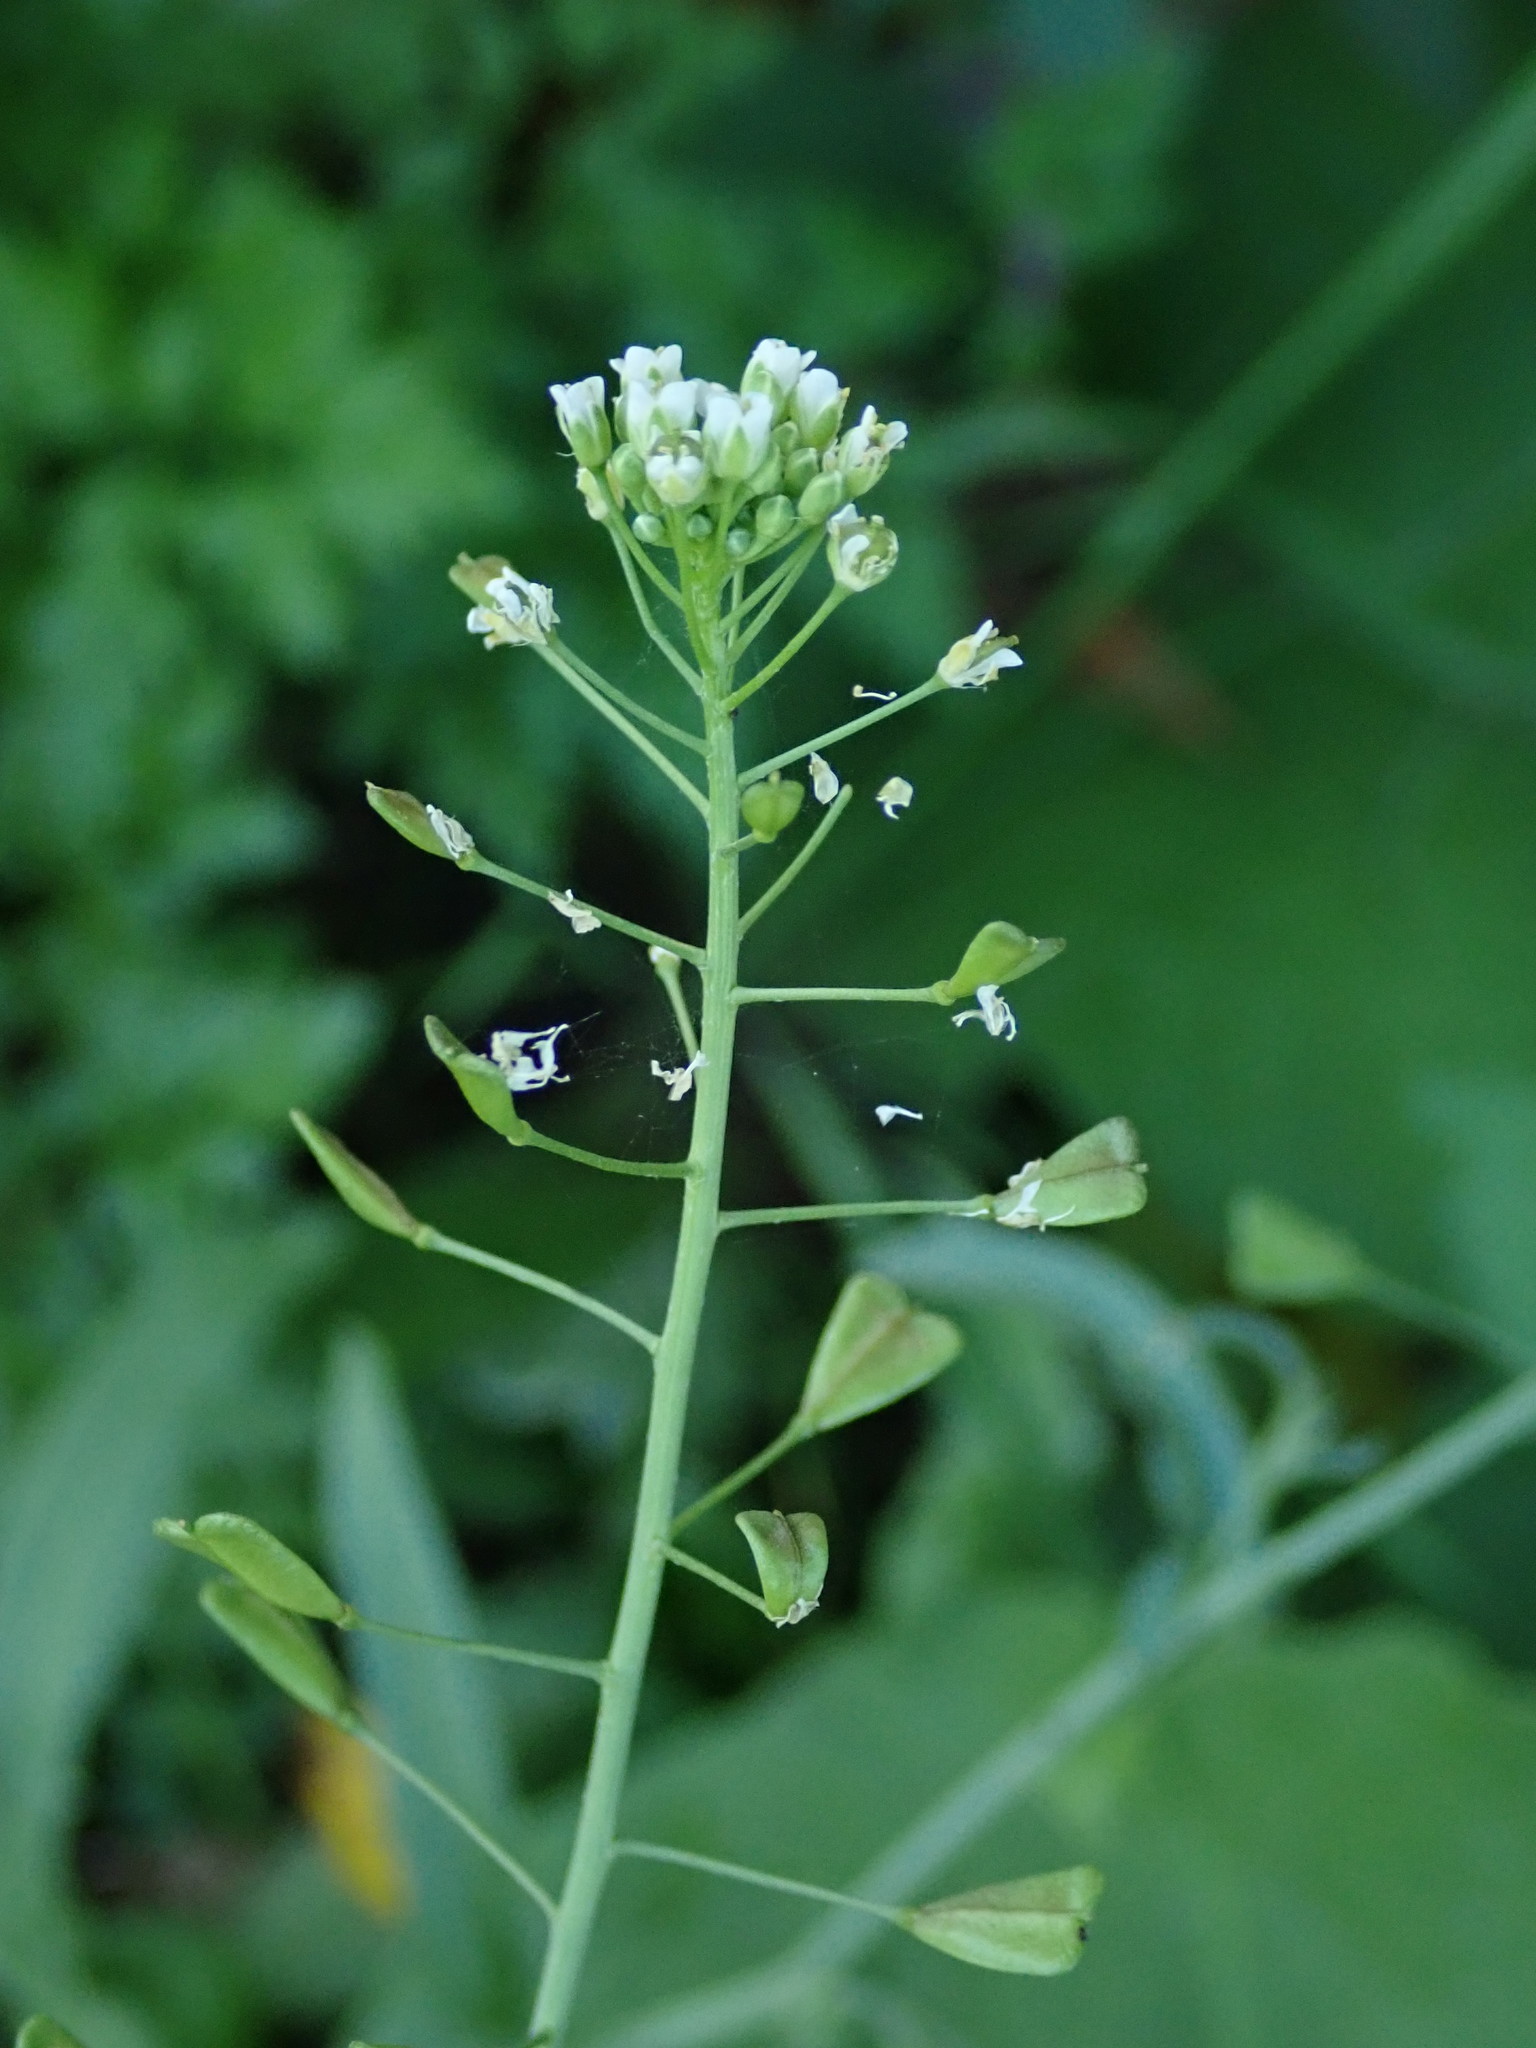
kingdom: Plantae
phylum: Tracheophyta
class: Magnoliopsida
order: Brassicales
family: Brassicaceae
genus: Capsella
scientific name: Capsella bursa-pastoris
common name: Shepherd's purse
